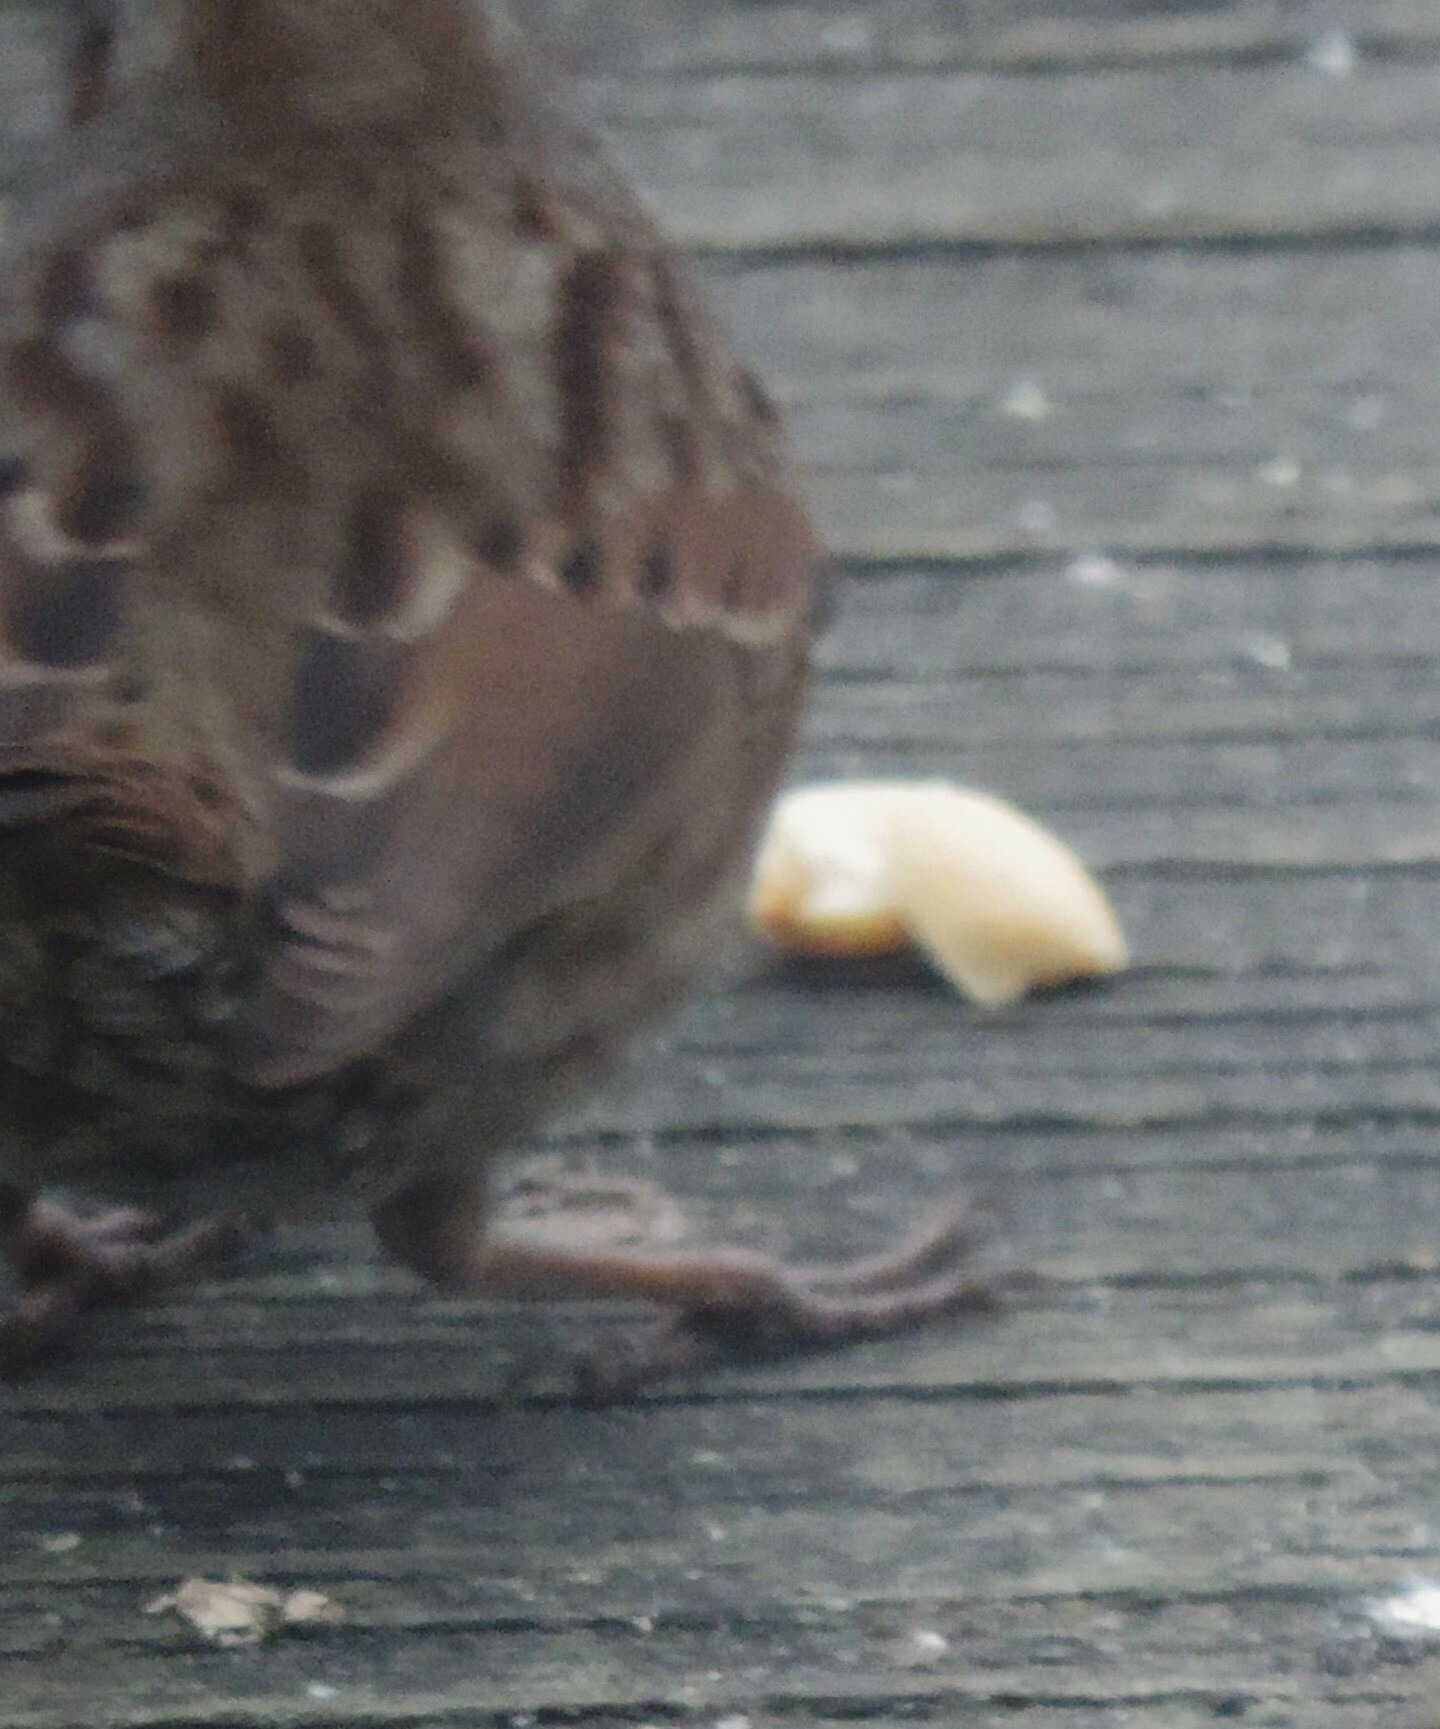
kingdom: Animalia
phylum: Chordata
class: Aves
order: Passeriformes
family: Passerellidae
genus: Melospiza
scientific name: Melospiza melodia
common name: Song sparrow
